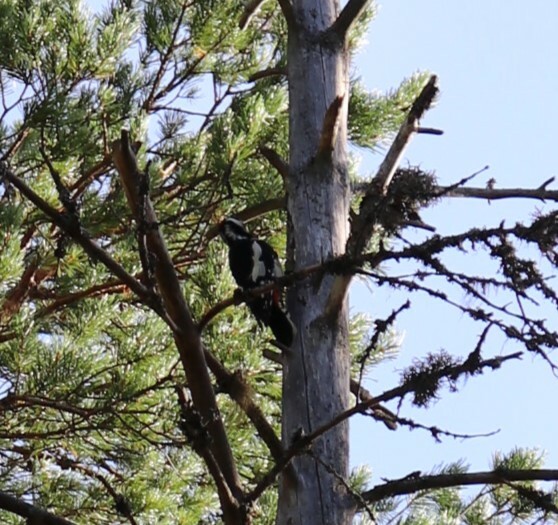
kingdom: Animalia
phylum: Chordata
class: Aves
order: Piciformes
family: Picidae
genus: Dendrocopos
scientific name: Dendrocopos major
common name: Great spotted woodpecker
